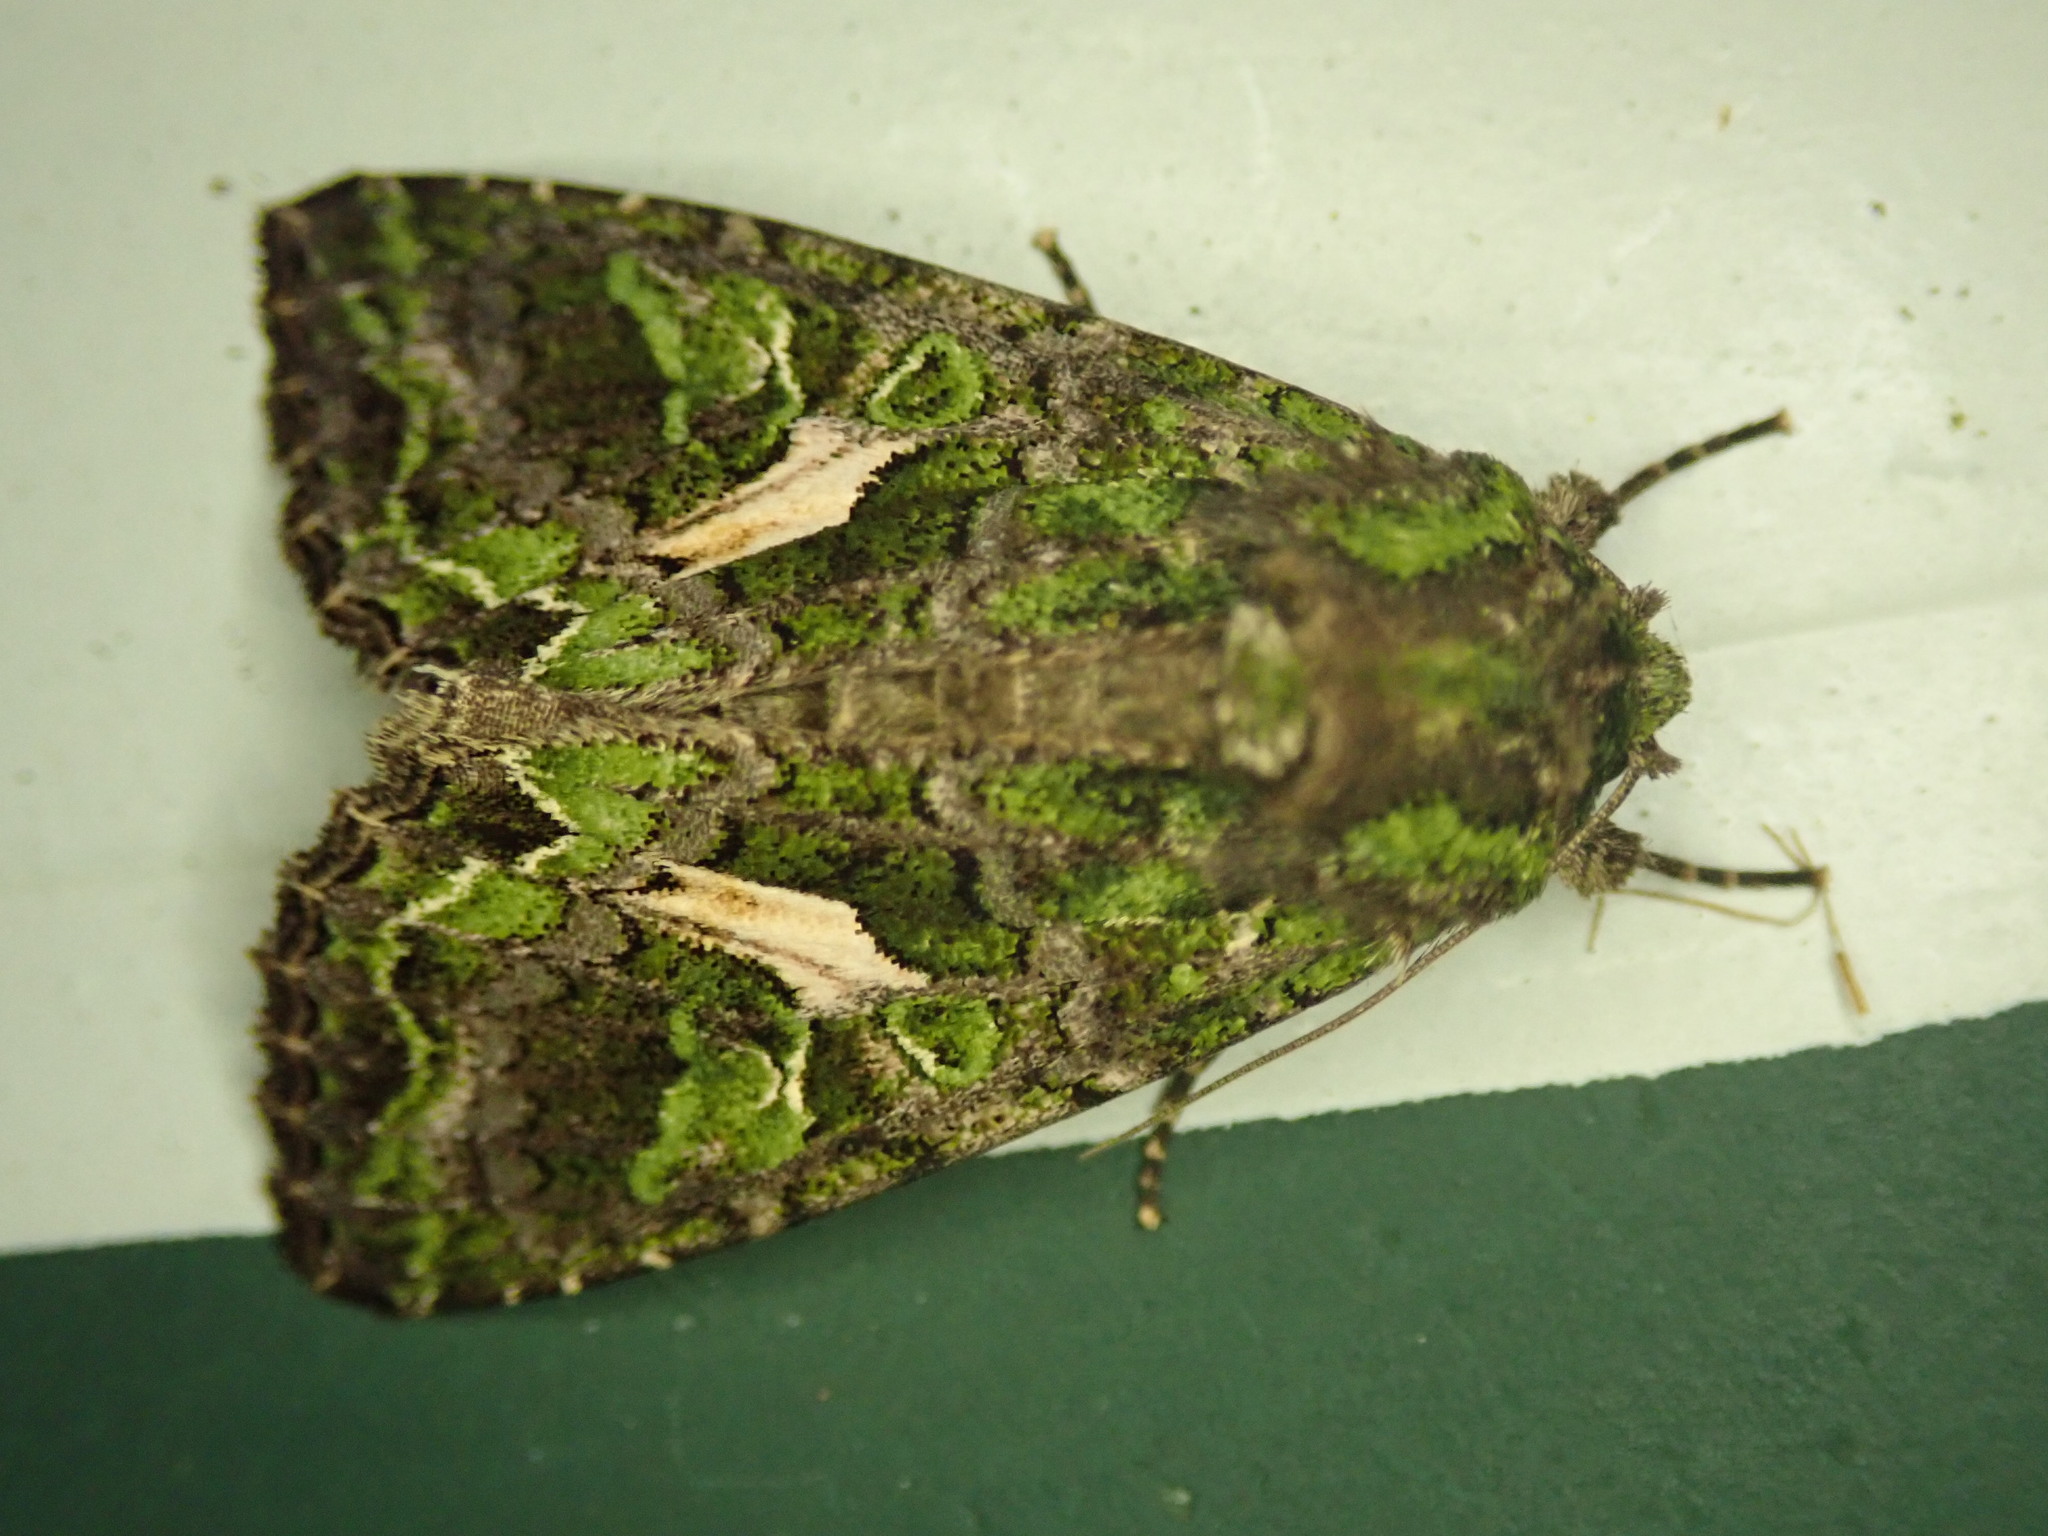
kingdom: Animalia
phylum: Arthropoda
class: Insecta
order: Lepidoptera
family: Noctuidae
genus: Trachea
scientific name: Trachea atriplicis
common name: Orache moth
